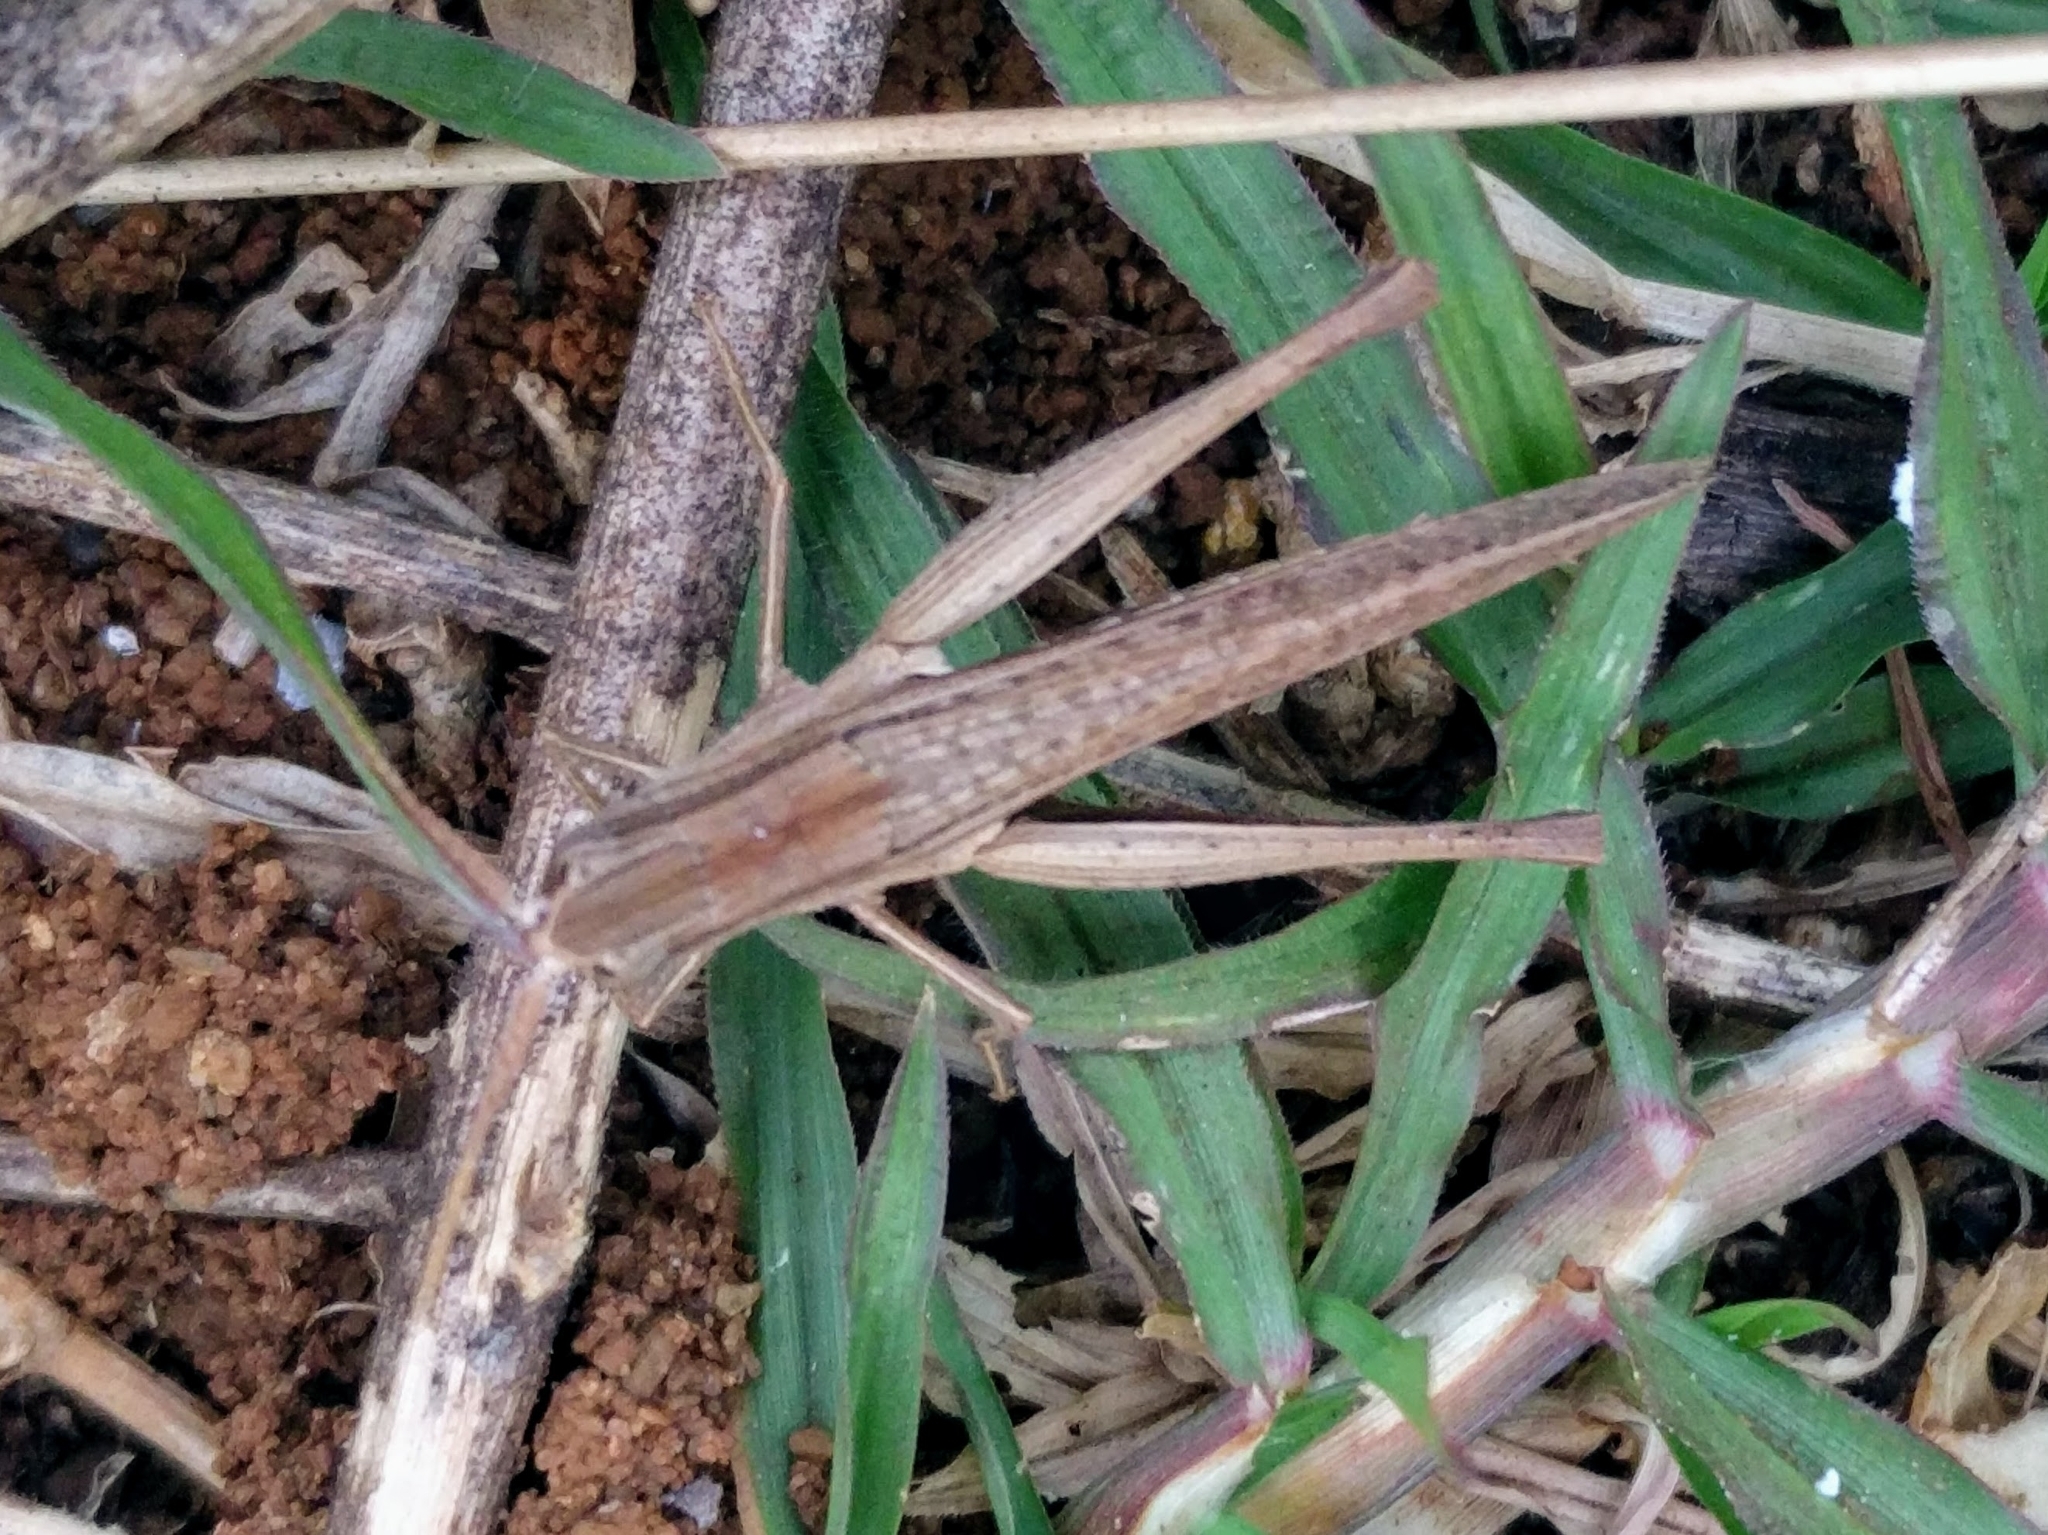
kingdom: Animalia
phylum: Arthropoda
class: Insecta
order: Orthoptera
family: Acrididae
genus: Phlaeoba
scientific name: Phlaeoba infumata
